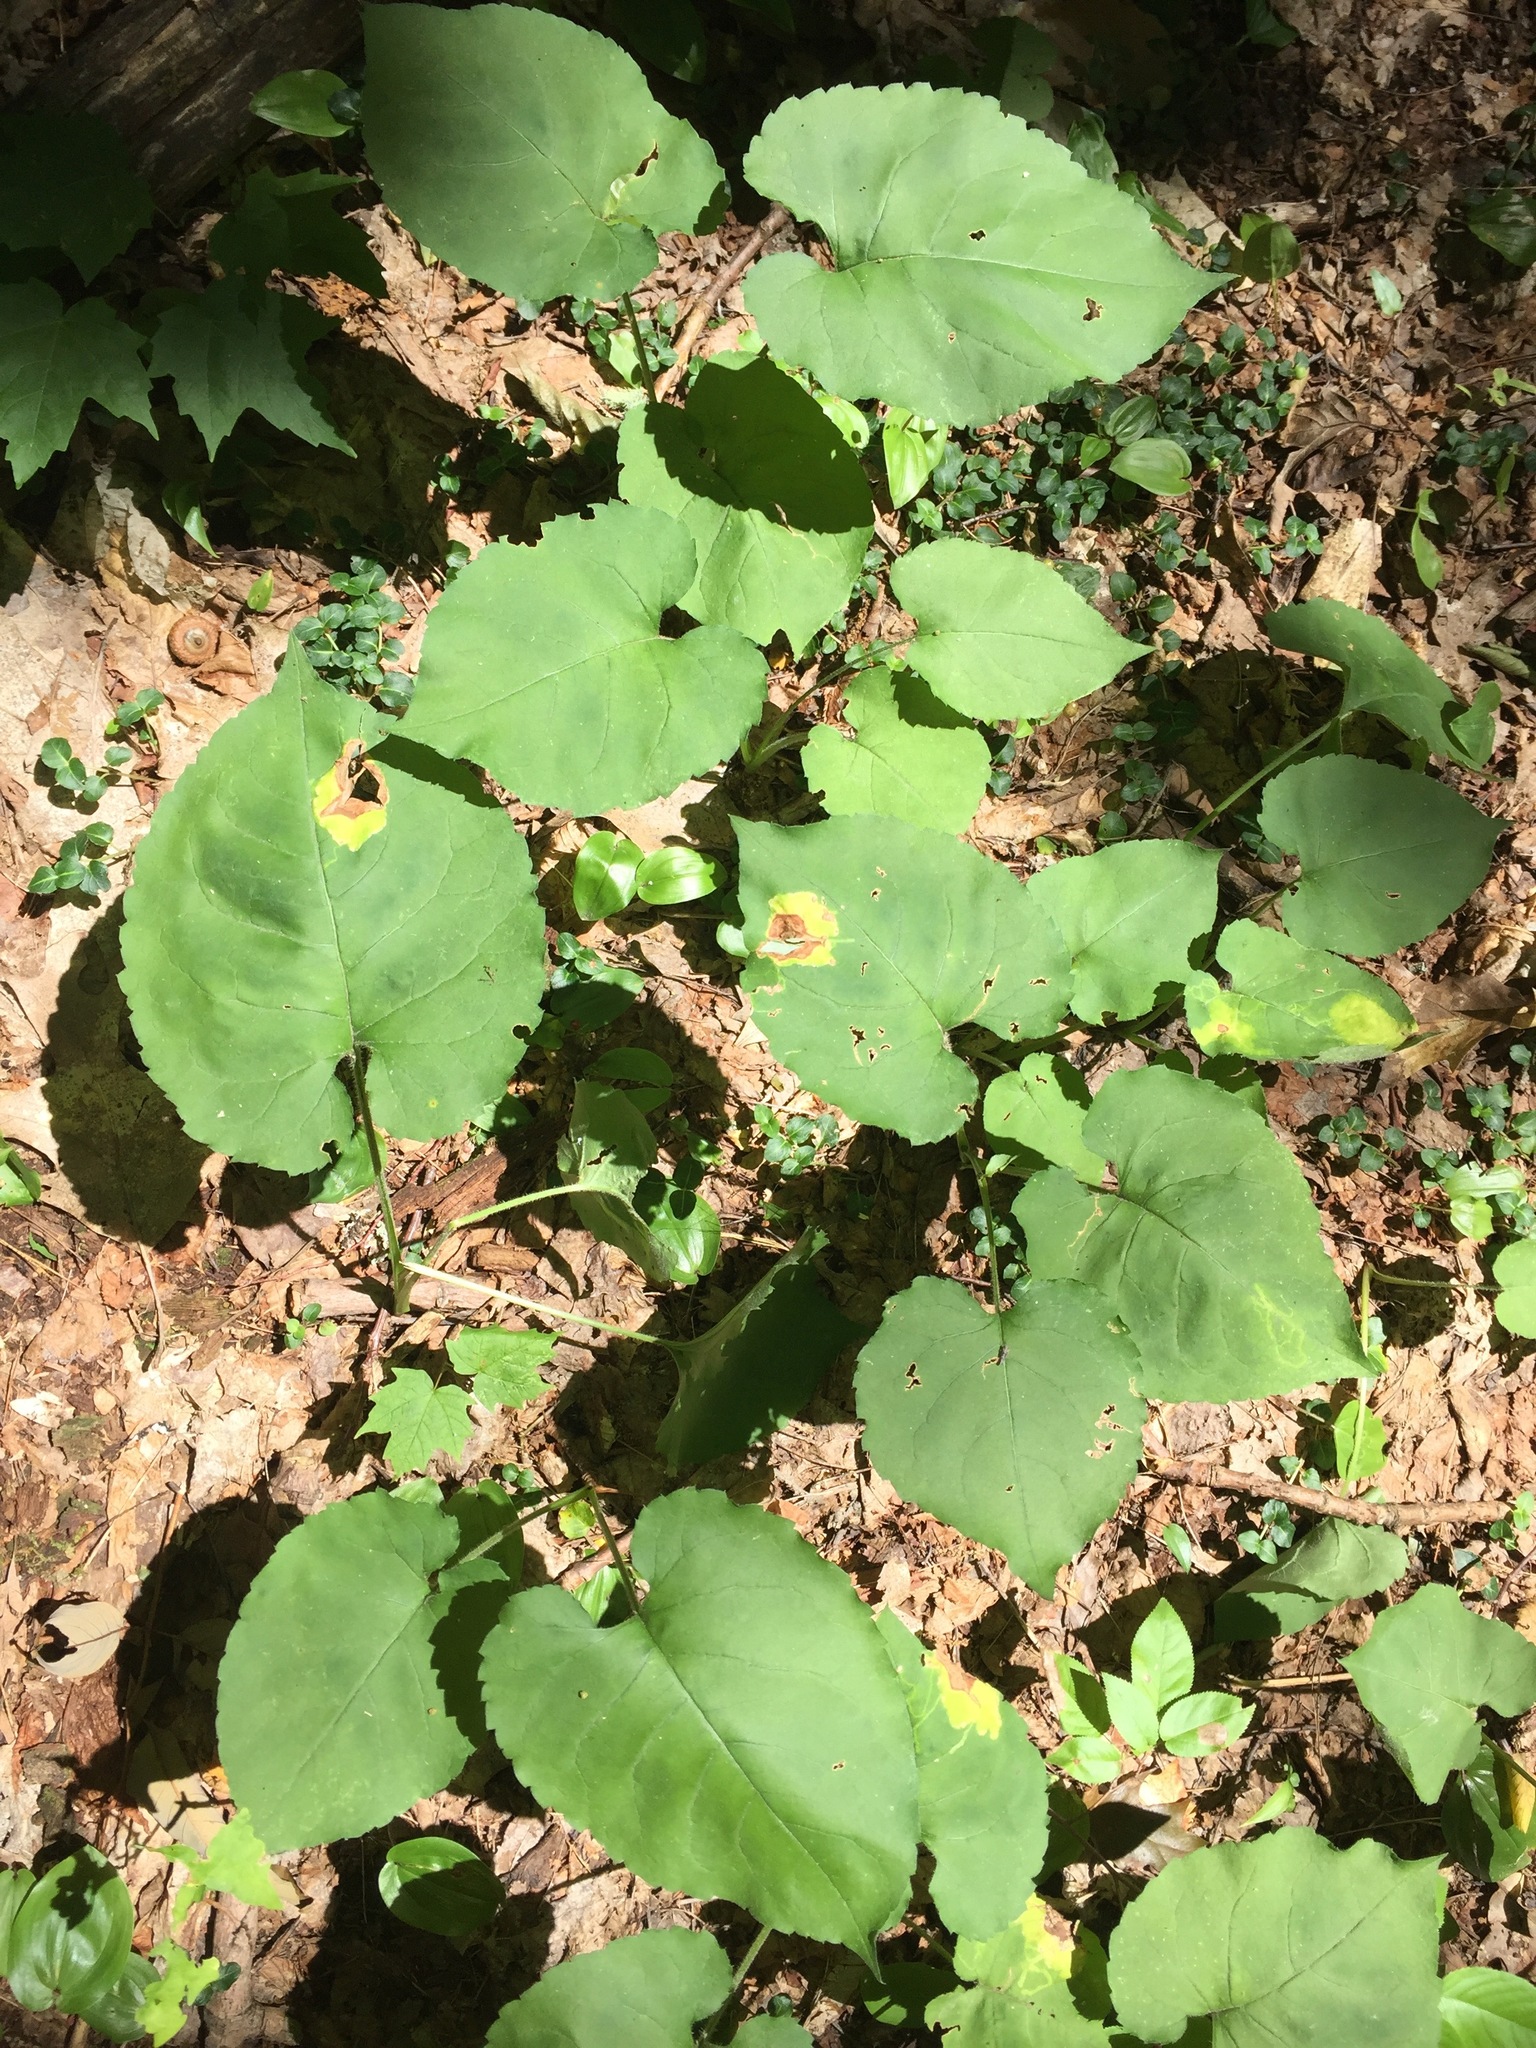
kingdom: Plantae
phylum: Tracheophyta
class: Magnoliopsida
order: Asterales
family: Asteraceae
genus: Eurybia
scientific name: Eurybia macrophylla
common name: Big-leaved aster
